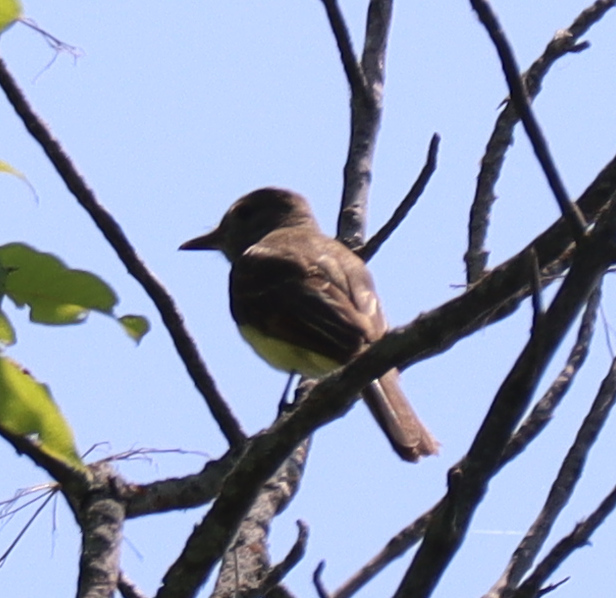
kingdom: Animalia
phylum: Chordata
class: Aves
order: Passeriformes
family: Tyrannidae
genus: Myiarchus
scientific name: Myiarchus crinitus
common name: Great crested flycatcher
